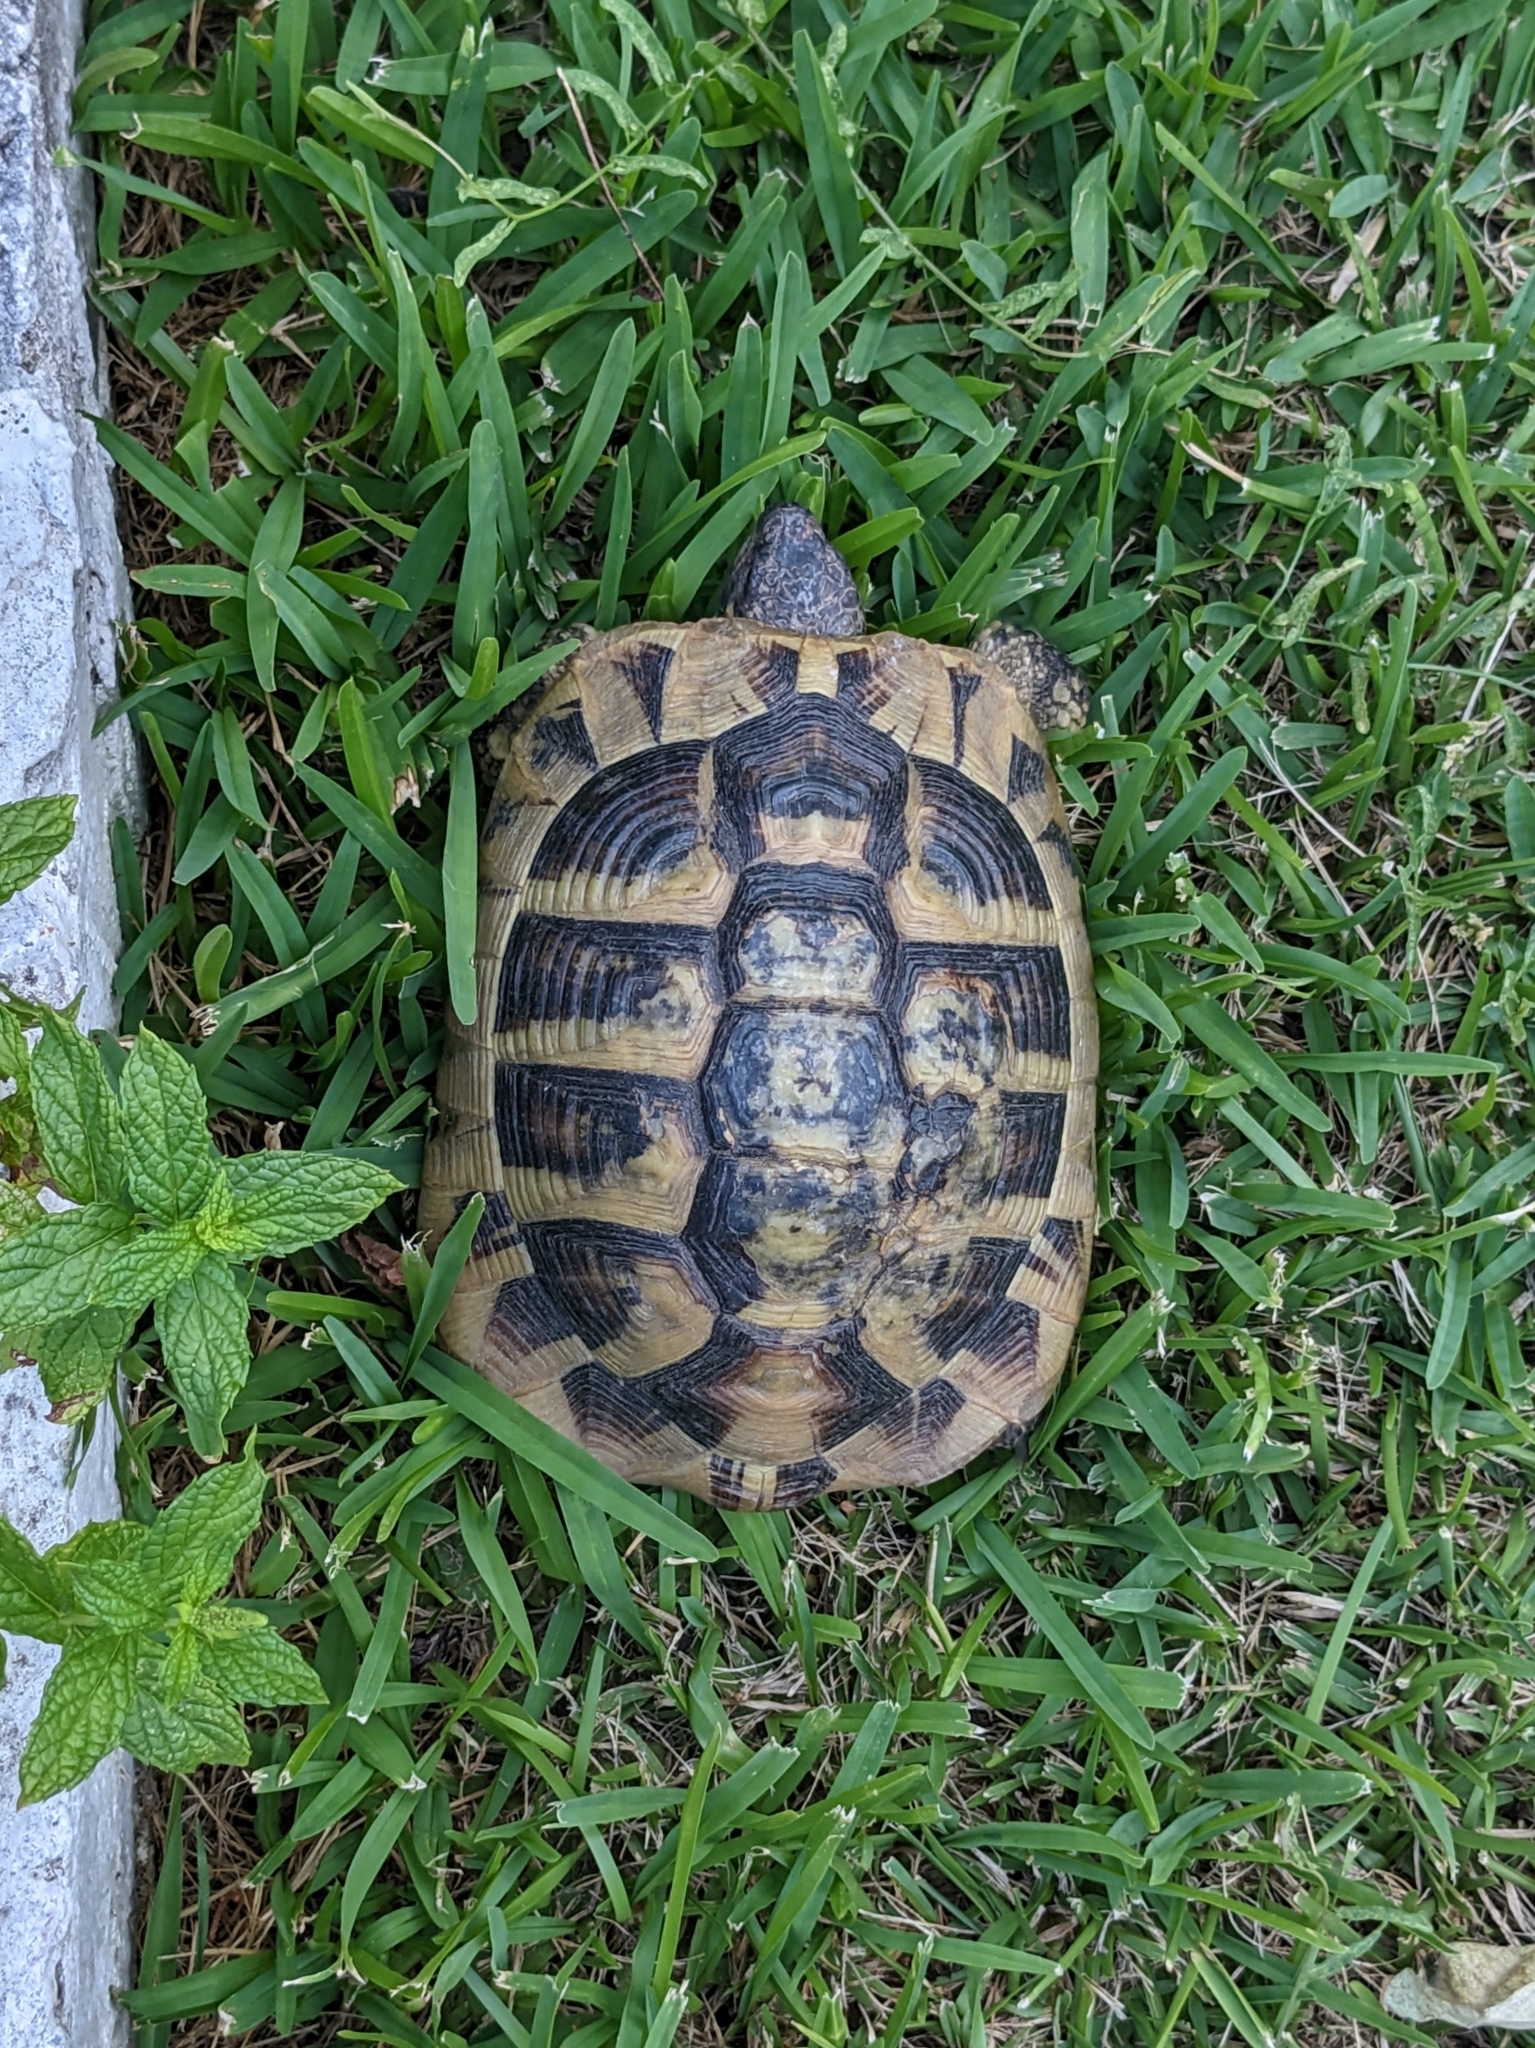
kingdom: Animalia
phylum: Chordata
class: Testudines
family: Testudinidae
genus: Testudo
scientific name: Testudo hermanni
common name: Hermann's tortoise
